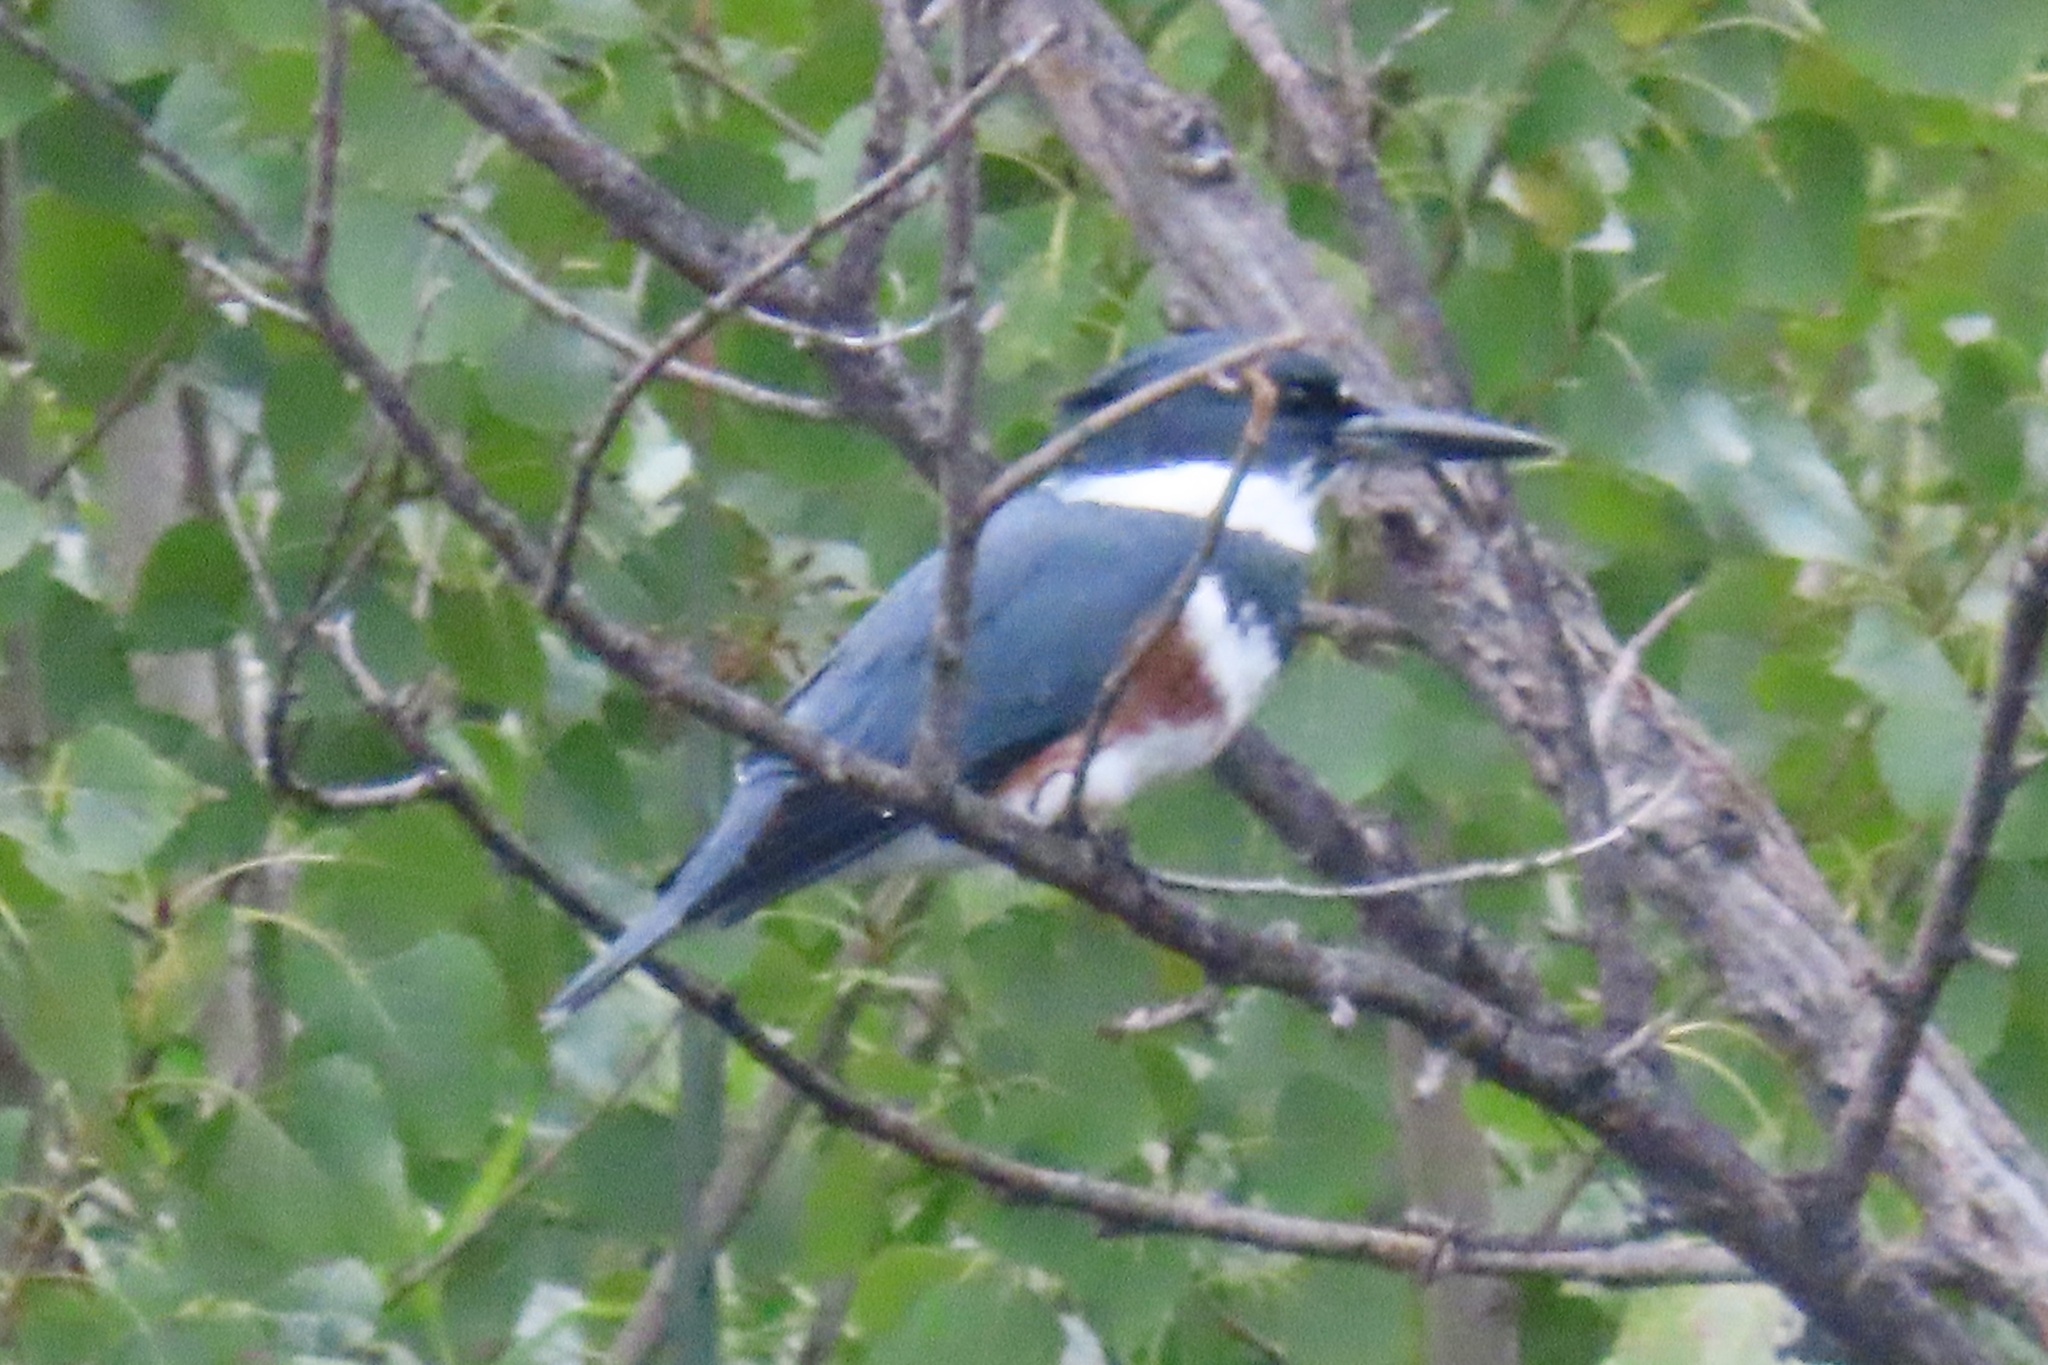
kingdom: Animalia
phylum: Chordata
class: Aves
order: Coraciiformes
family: Alcedinidae
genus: Megaceryle
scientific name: Megaceryle alcyon
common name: Belted kingfisher
